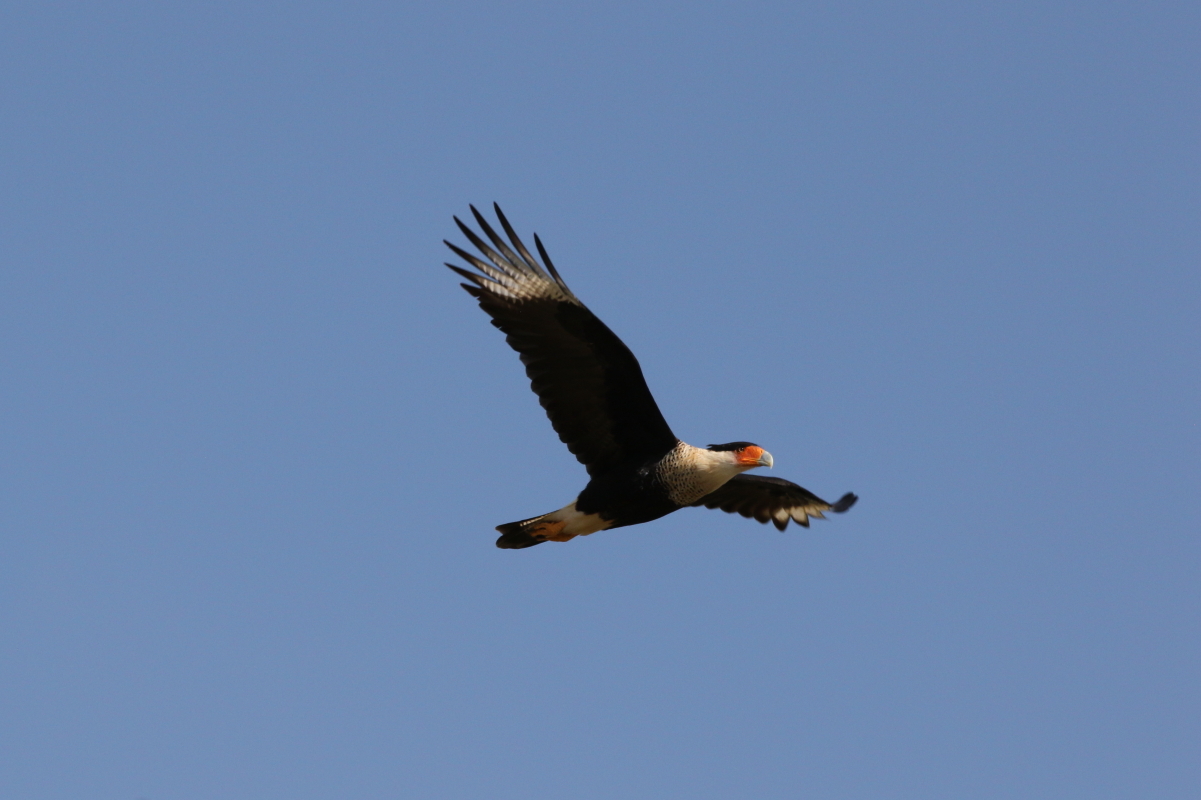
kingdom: Animalia
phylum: Chordata
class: Aves
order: Falconiformes
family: Falconidae
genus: Caracara
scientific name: Caracara plancus
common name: Southern caracara
